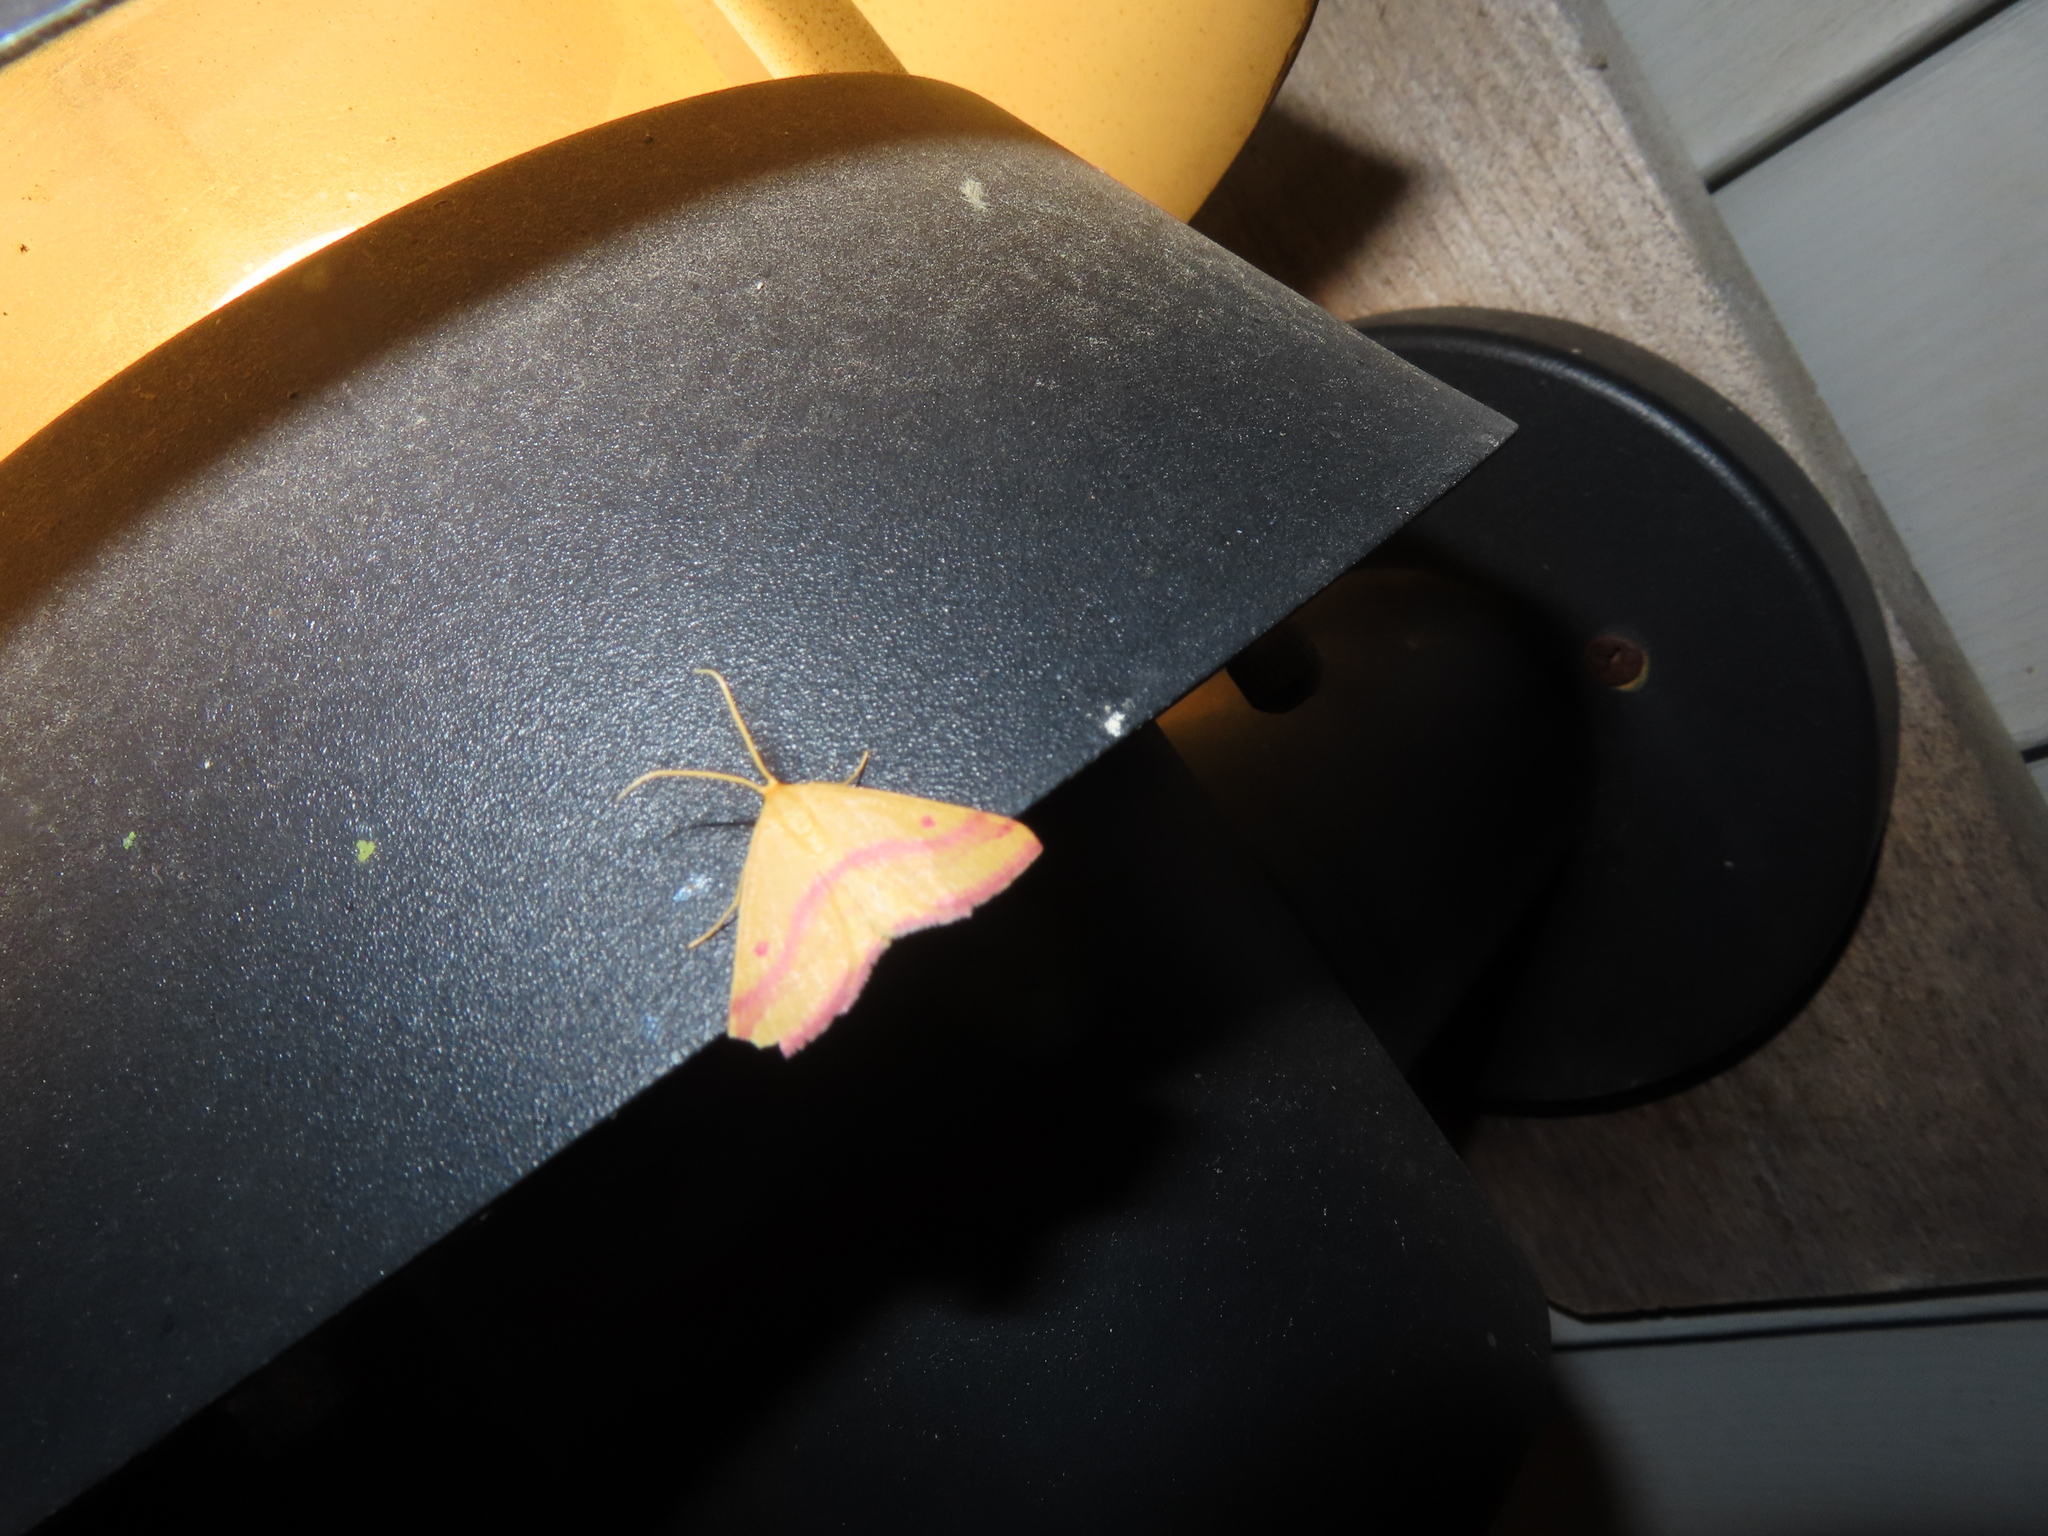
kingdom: Animalia
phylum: Arthropoda
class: Insecta
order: Lepidoptera
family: Geometridae
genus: Haematopis
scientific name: Haematopis grataria
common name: Chickweed geometer
